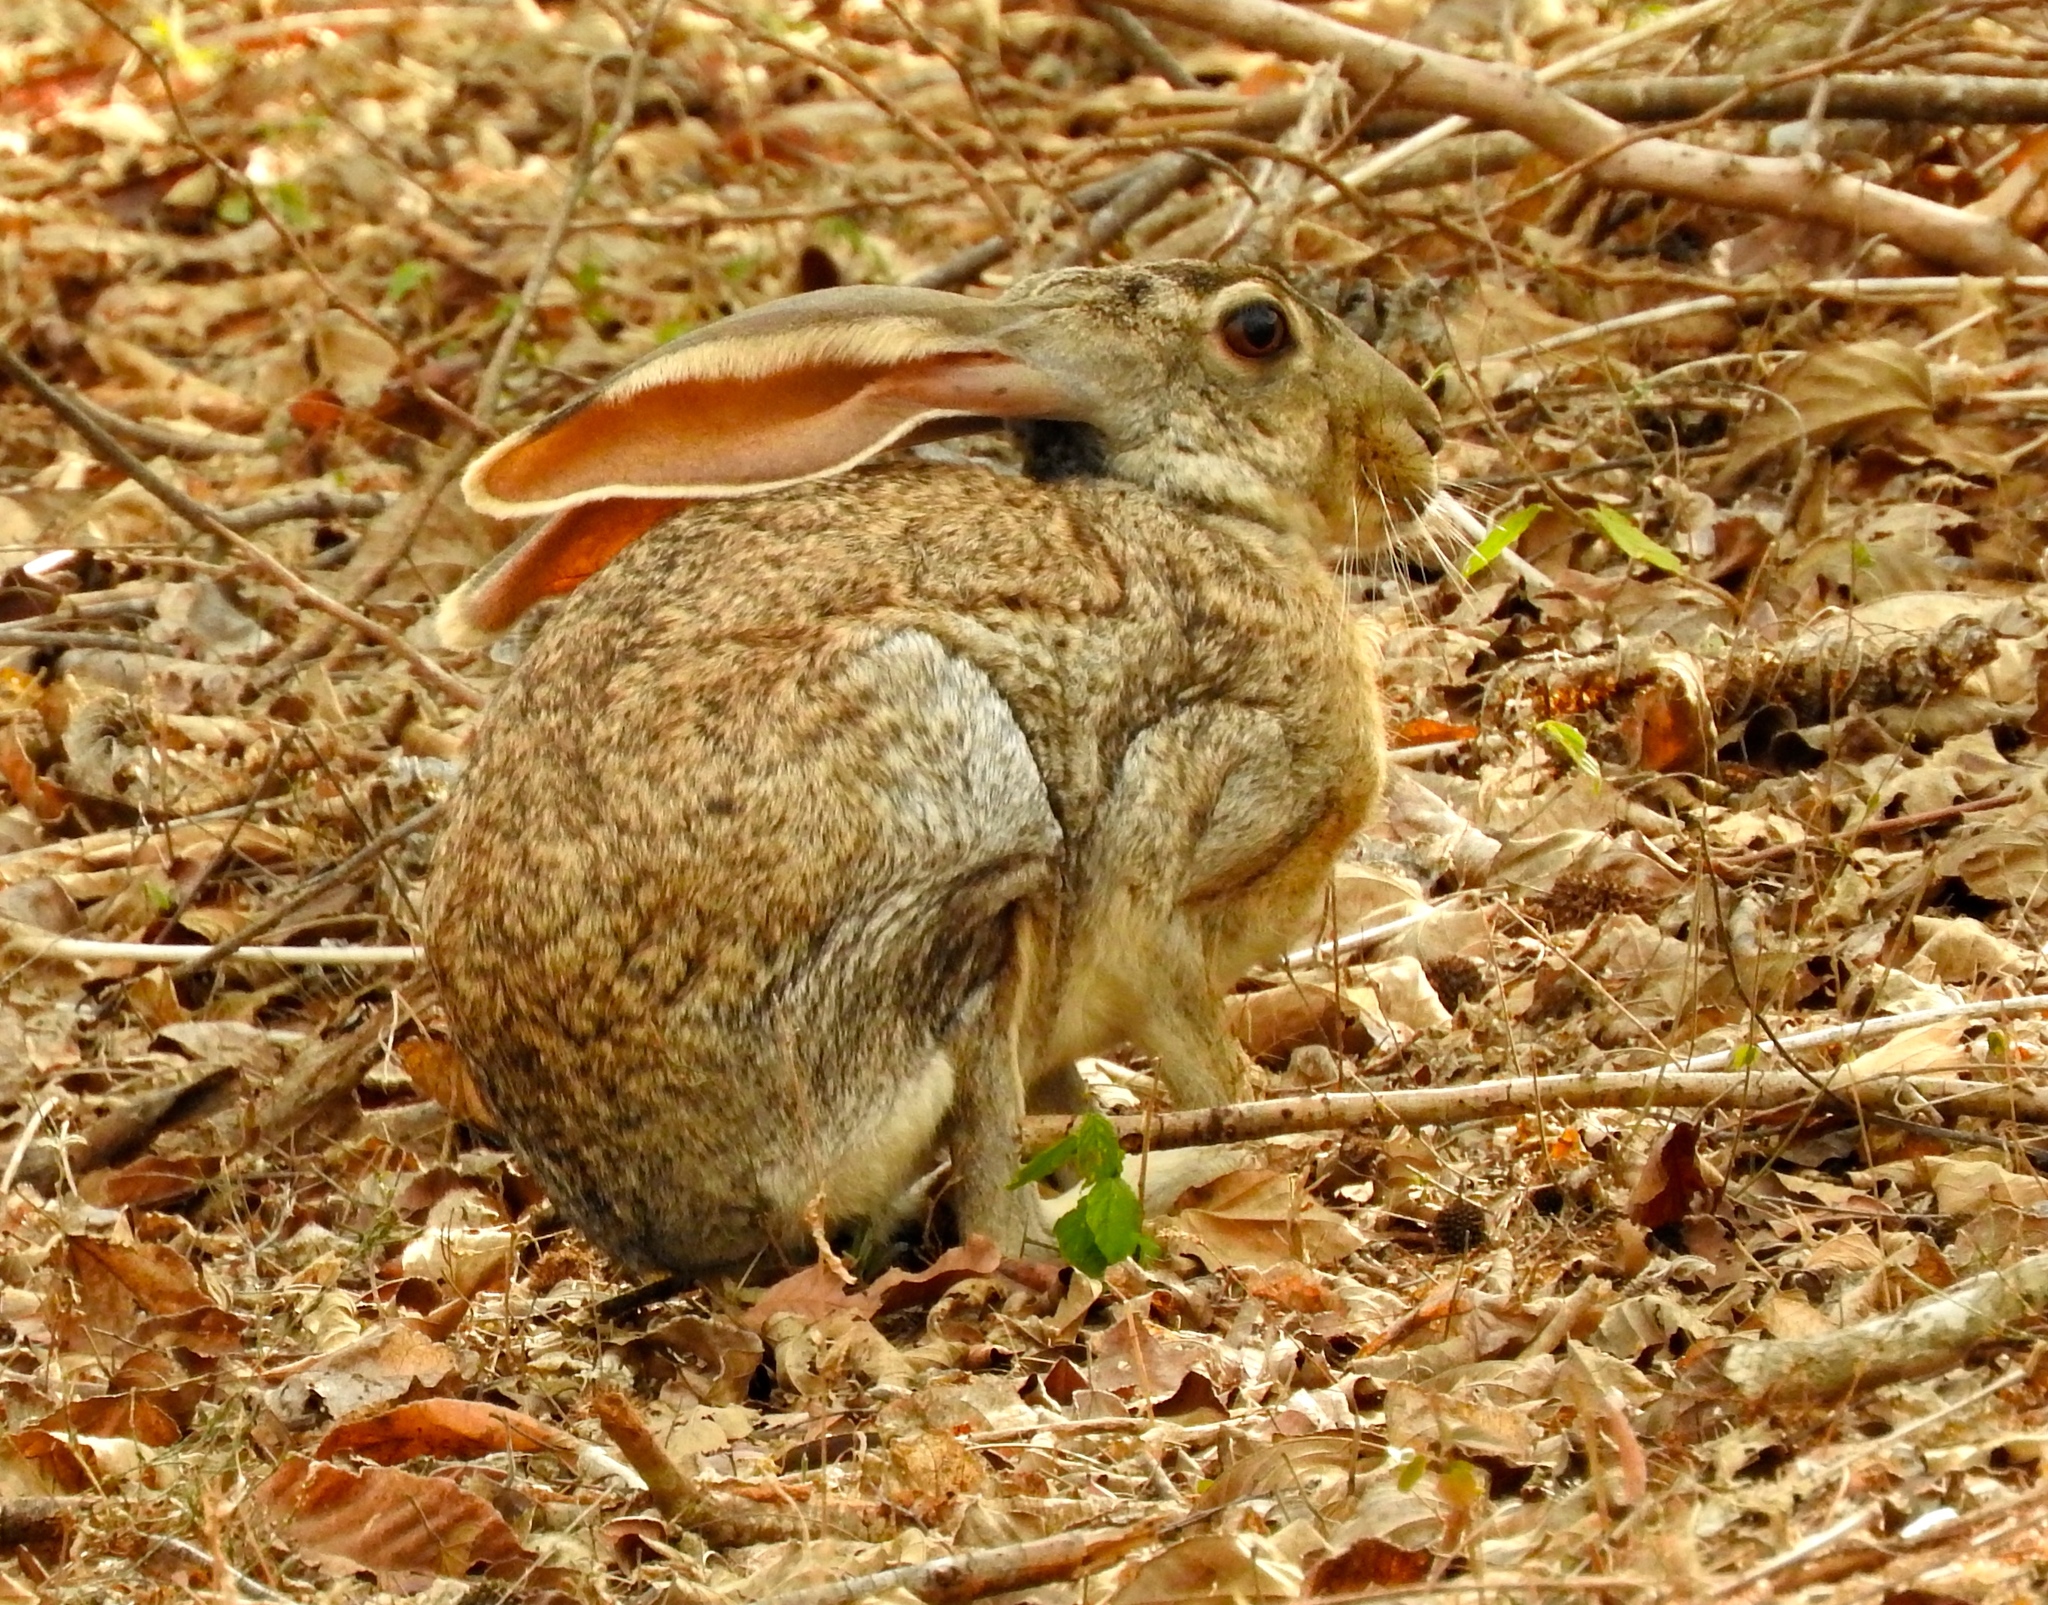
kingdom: Animalia
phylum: Chordata
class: Mammalia
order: Lagomorpha
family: Leporidae
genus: Lepus
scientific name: Lepus alleni
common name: Antelope jackrabbit
